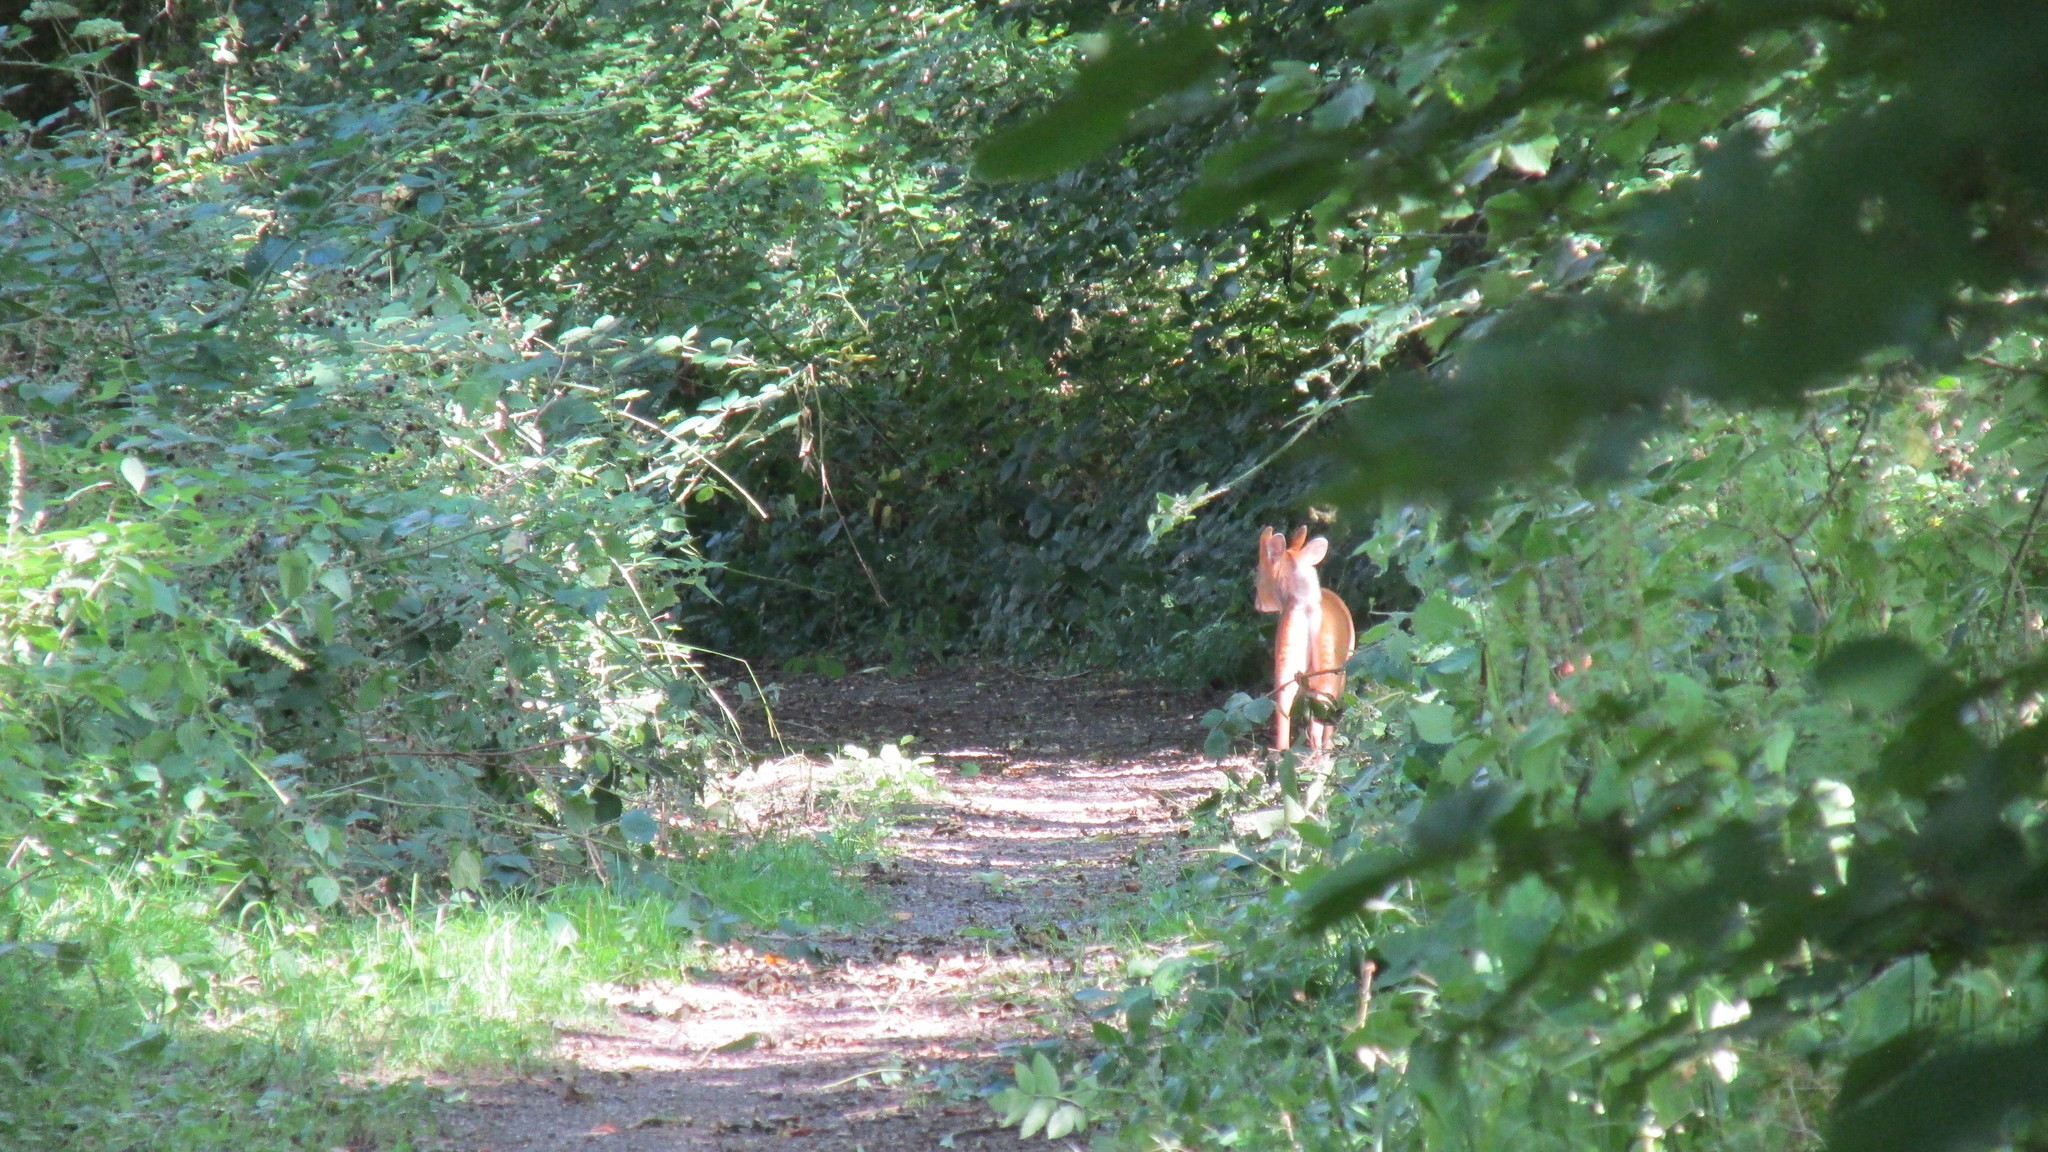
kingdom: Animalia
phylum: Chordata
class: Mammalia
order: Artiodactyla
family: Cervidae
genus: Muntiacus
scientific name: Muntiacus reevesi
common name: Reeves' muntjac
